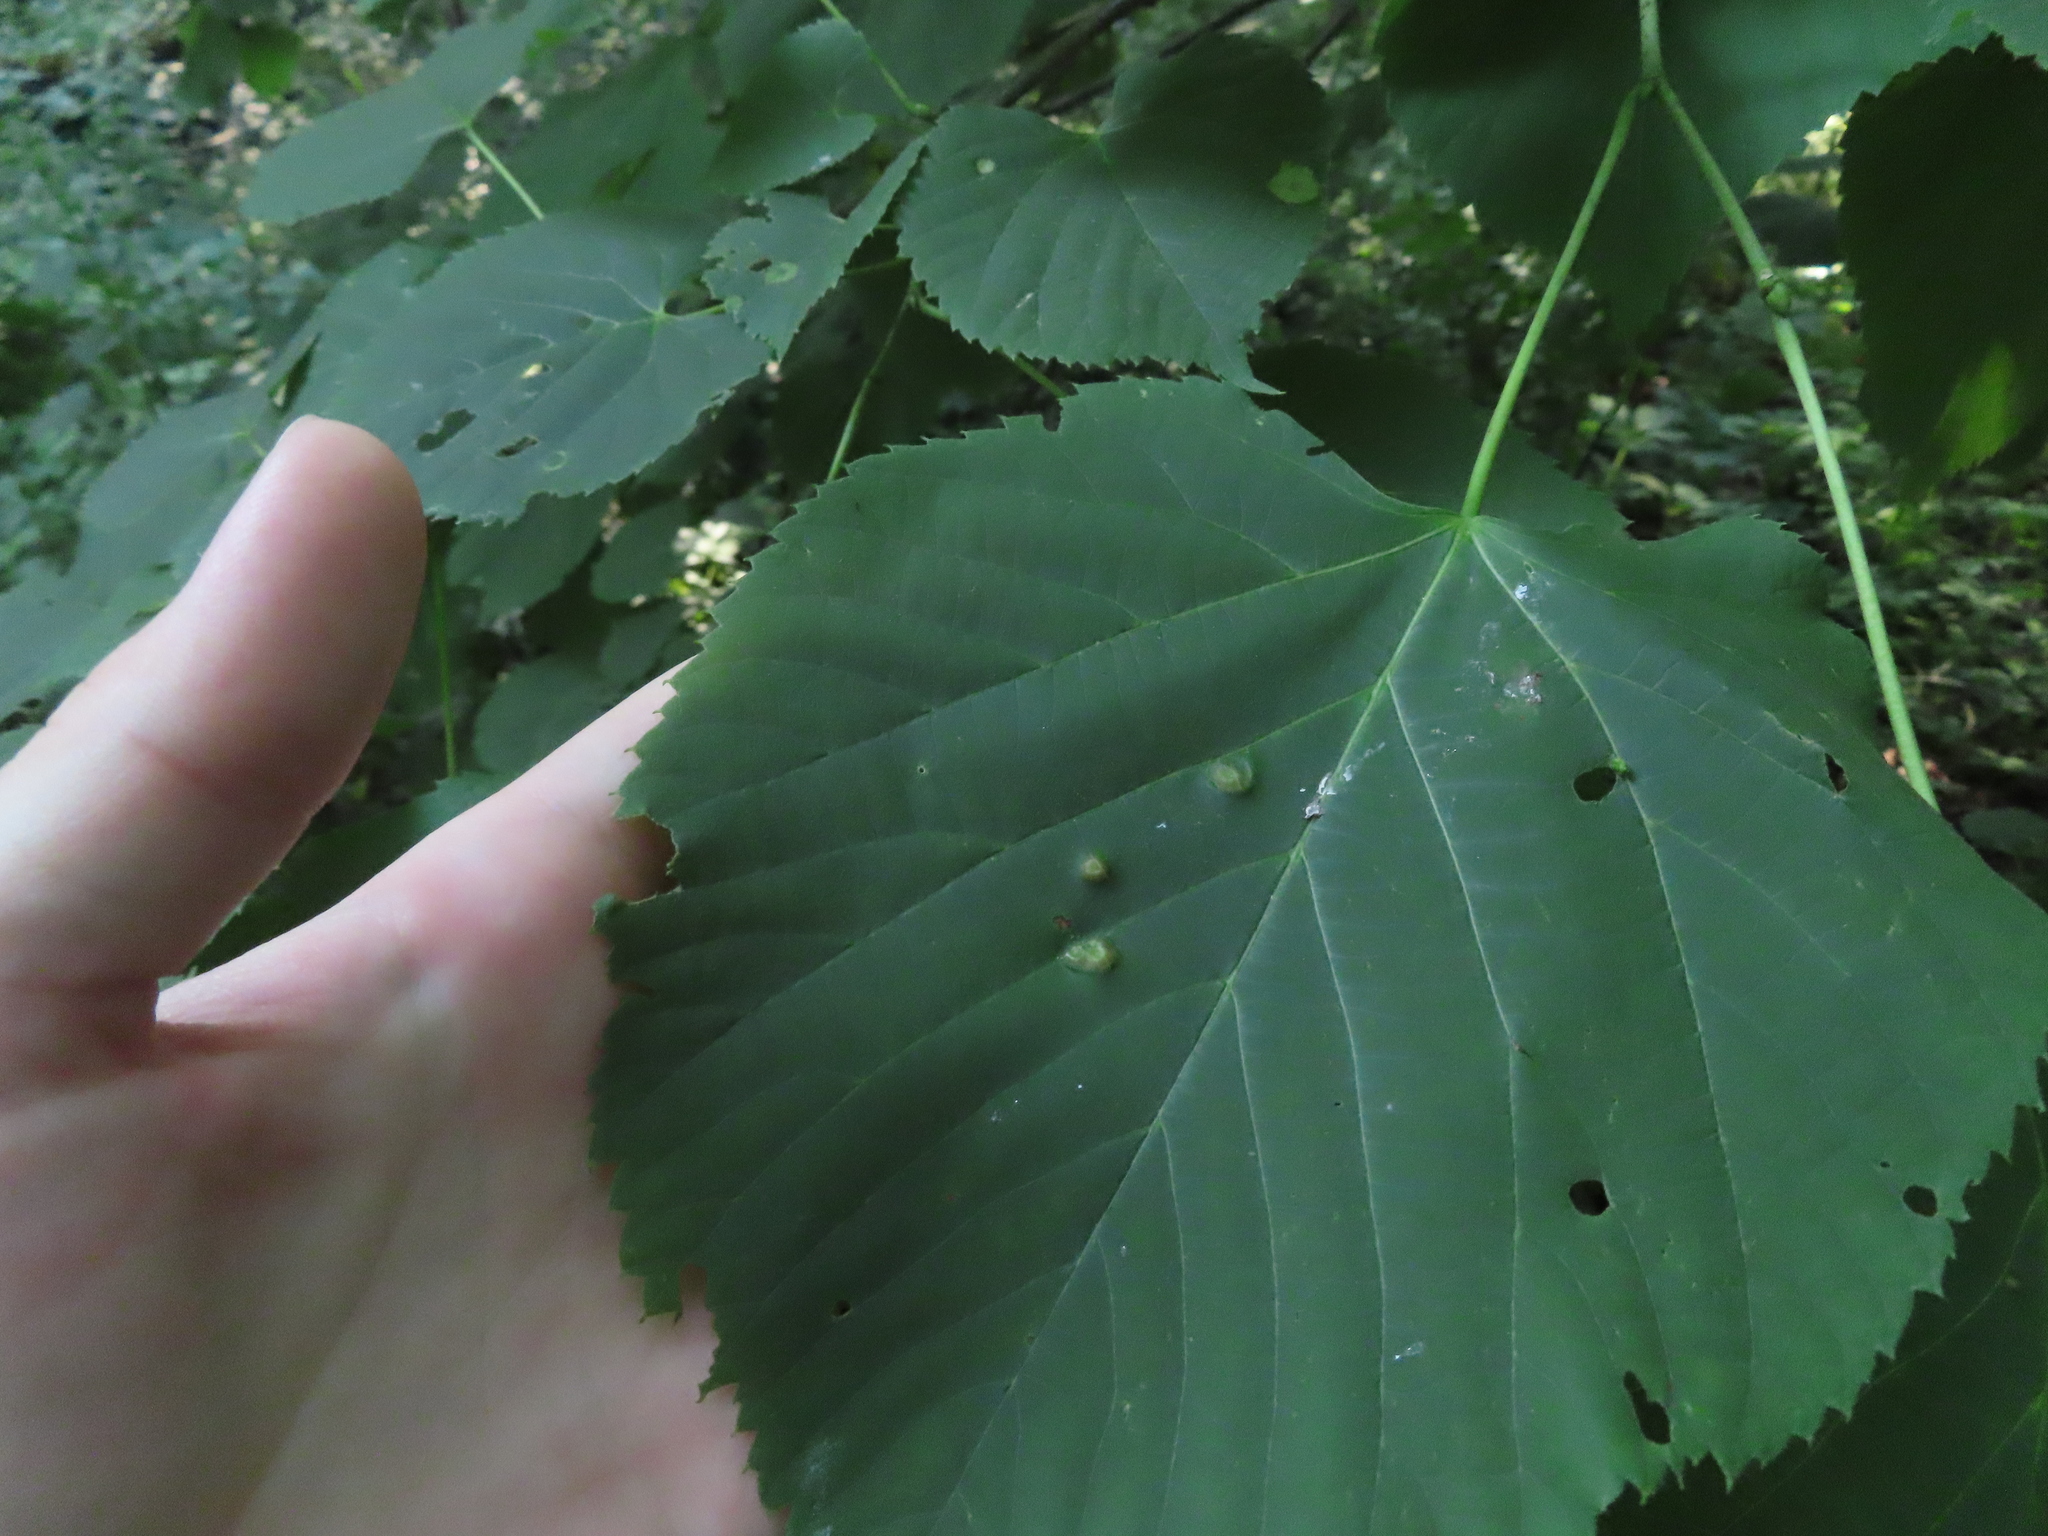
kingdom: Animalia
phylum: Arthropoda
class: Insecta
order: Diptera
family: Cecidomyiidae
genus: Contarinia
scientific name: Contarinia verrucicola
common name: Linden wart gall midge
